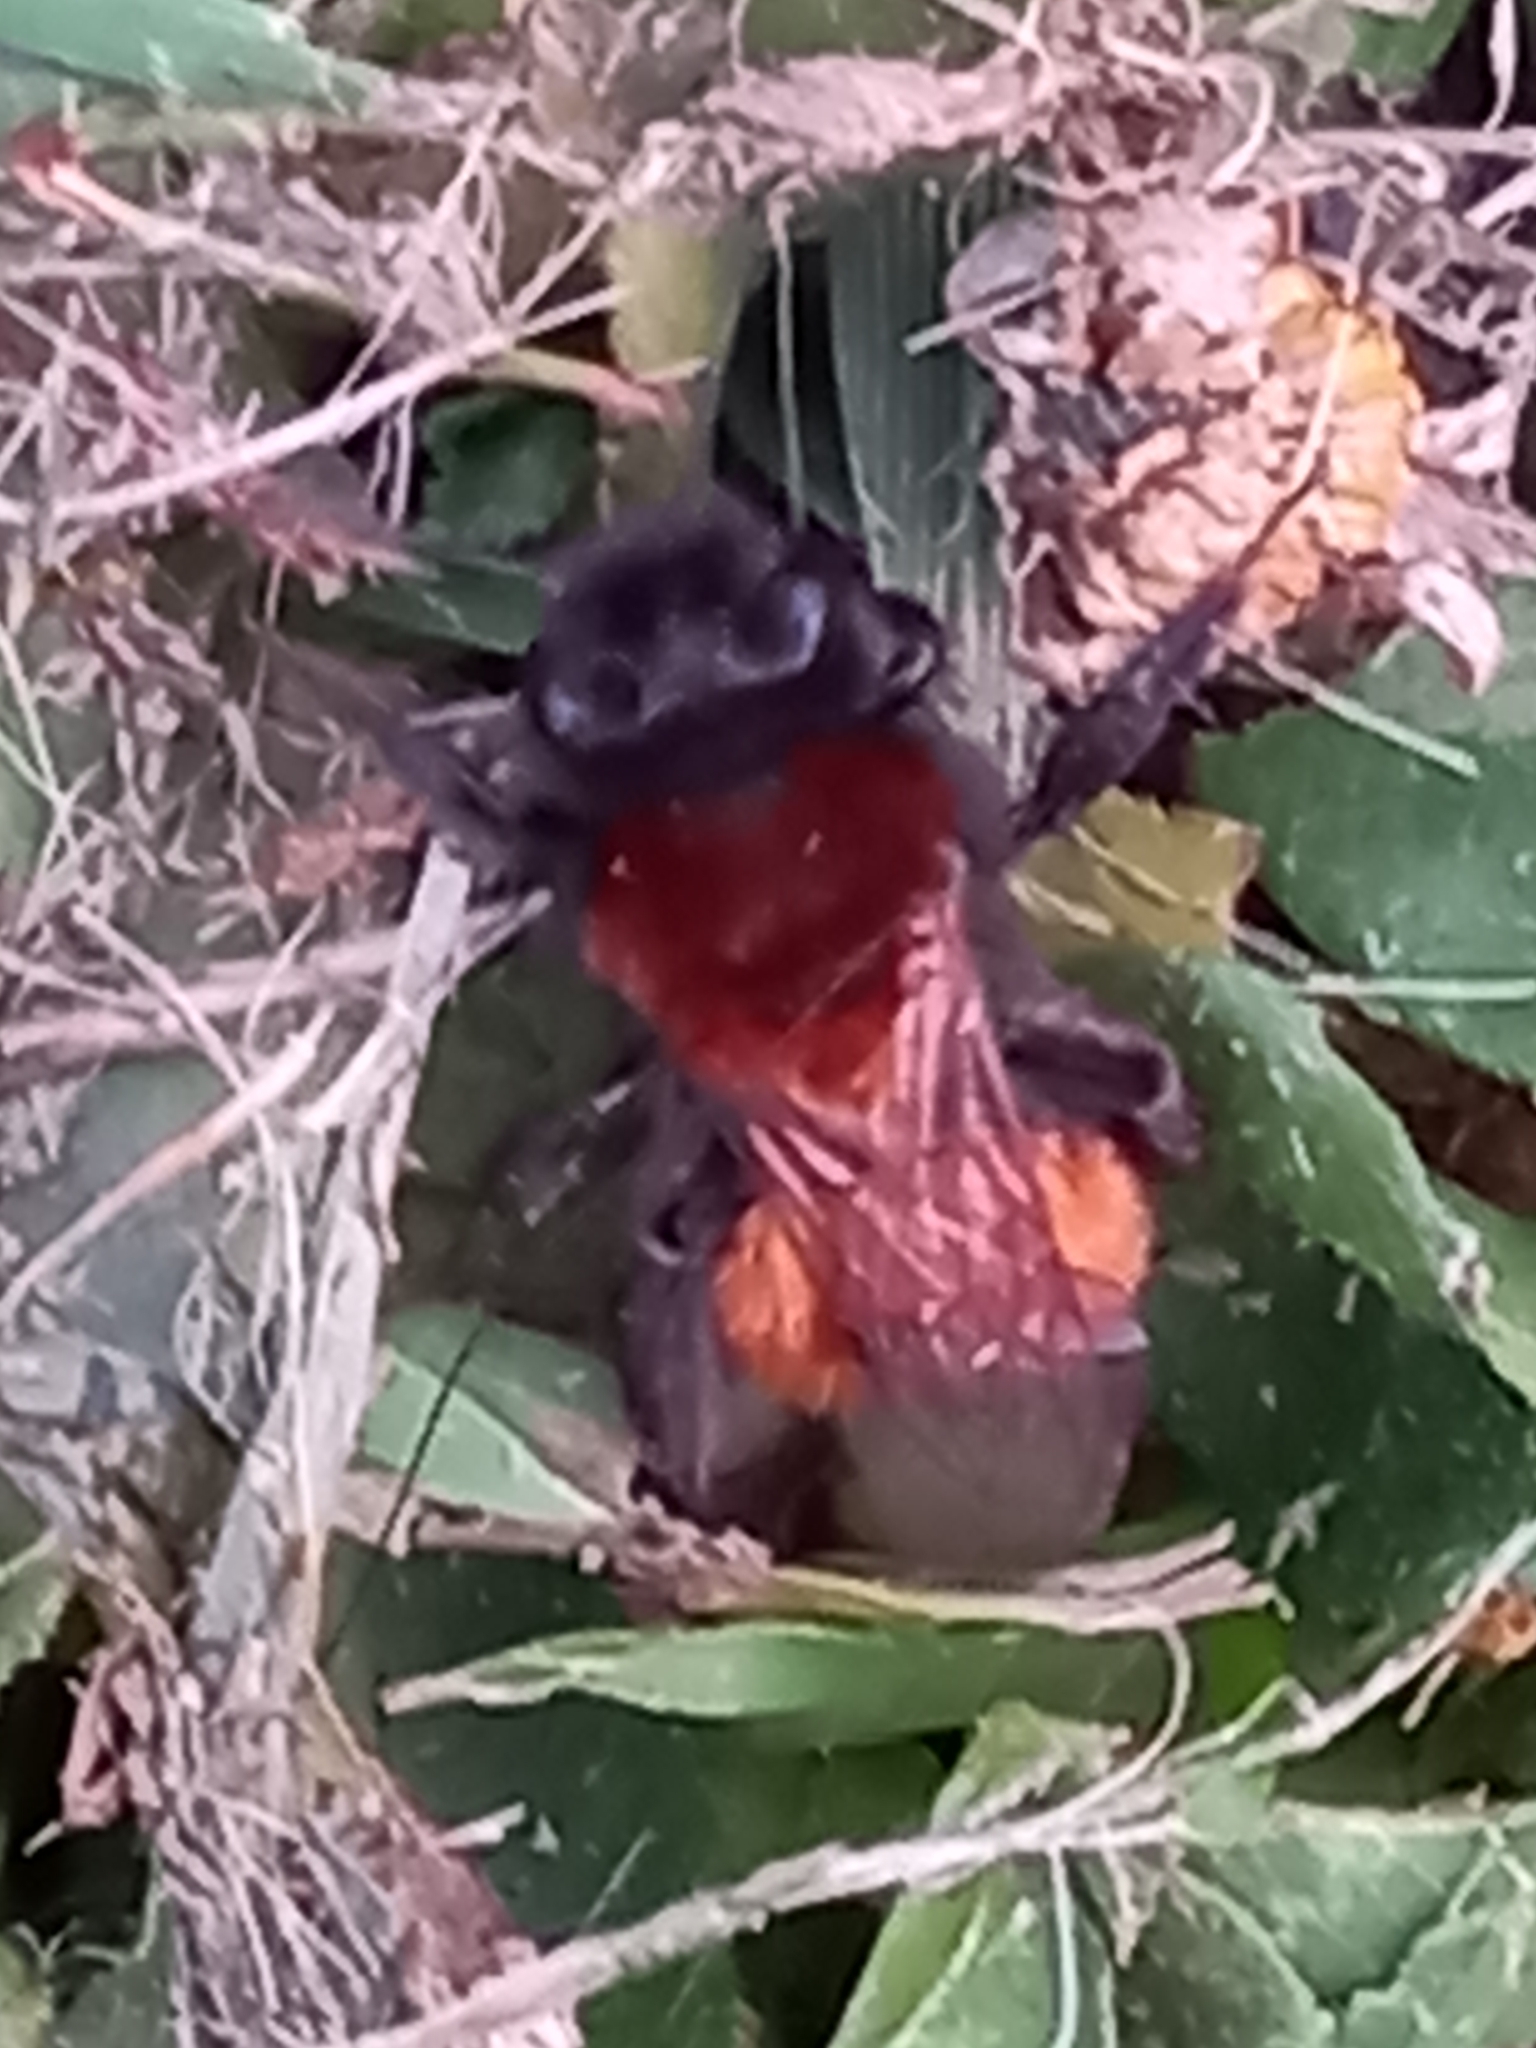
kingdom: Animalia
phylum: Arthropoda
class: Insecta
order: Hymenoptera
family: Andrenidae
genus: Andrena
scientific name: Andrena fulva
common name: Tawny mining bee
